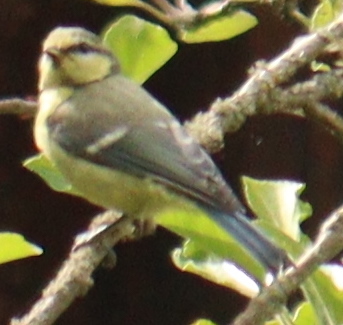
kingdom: Animalia
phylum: Chordata
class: Aves
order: Passeriformes
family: Paridae
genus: Cyanistes
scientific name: Cyanistes caeruleus
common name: Eurasian blue tit
